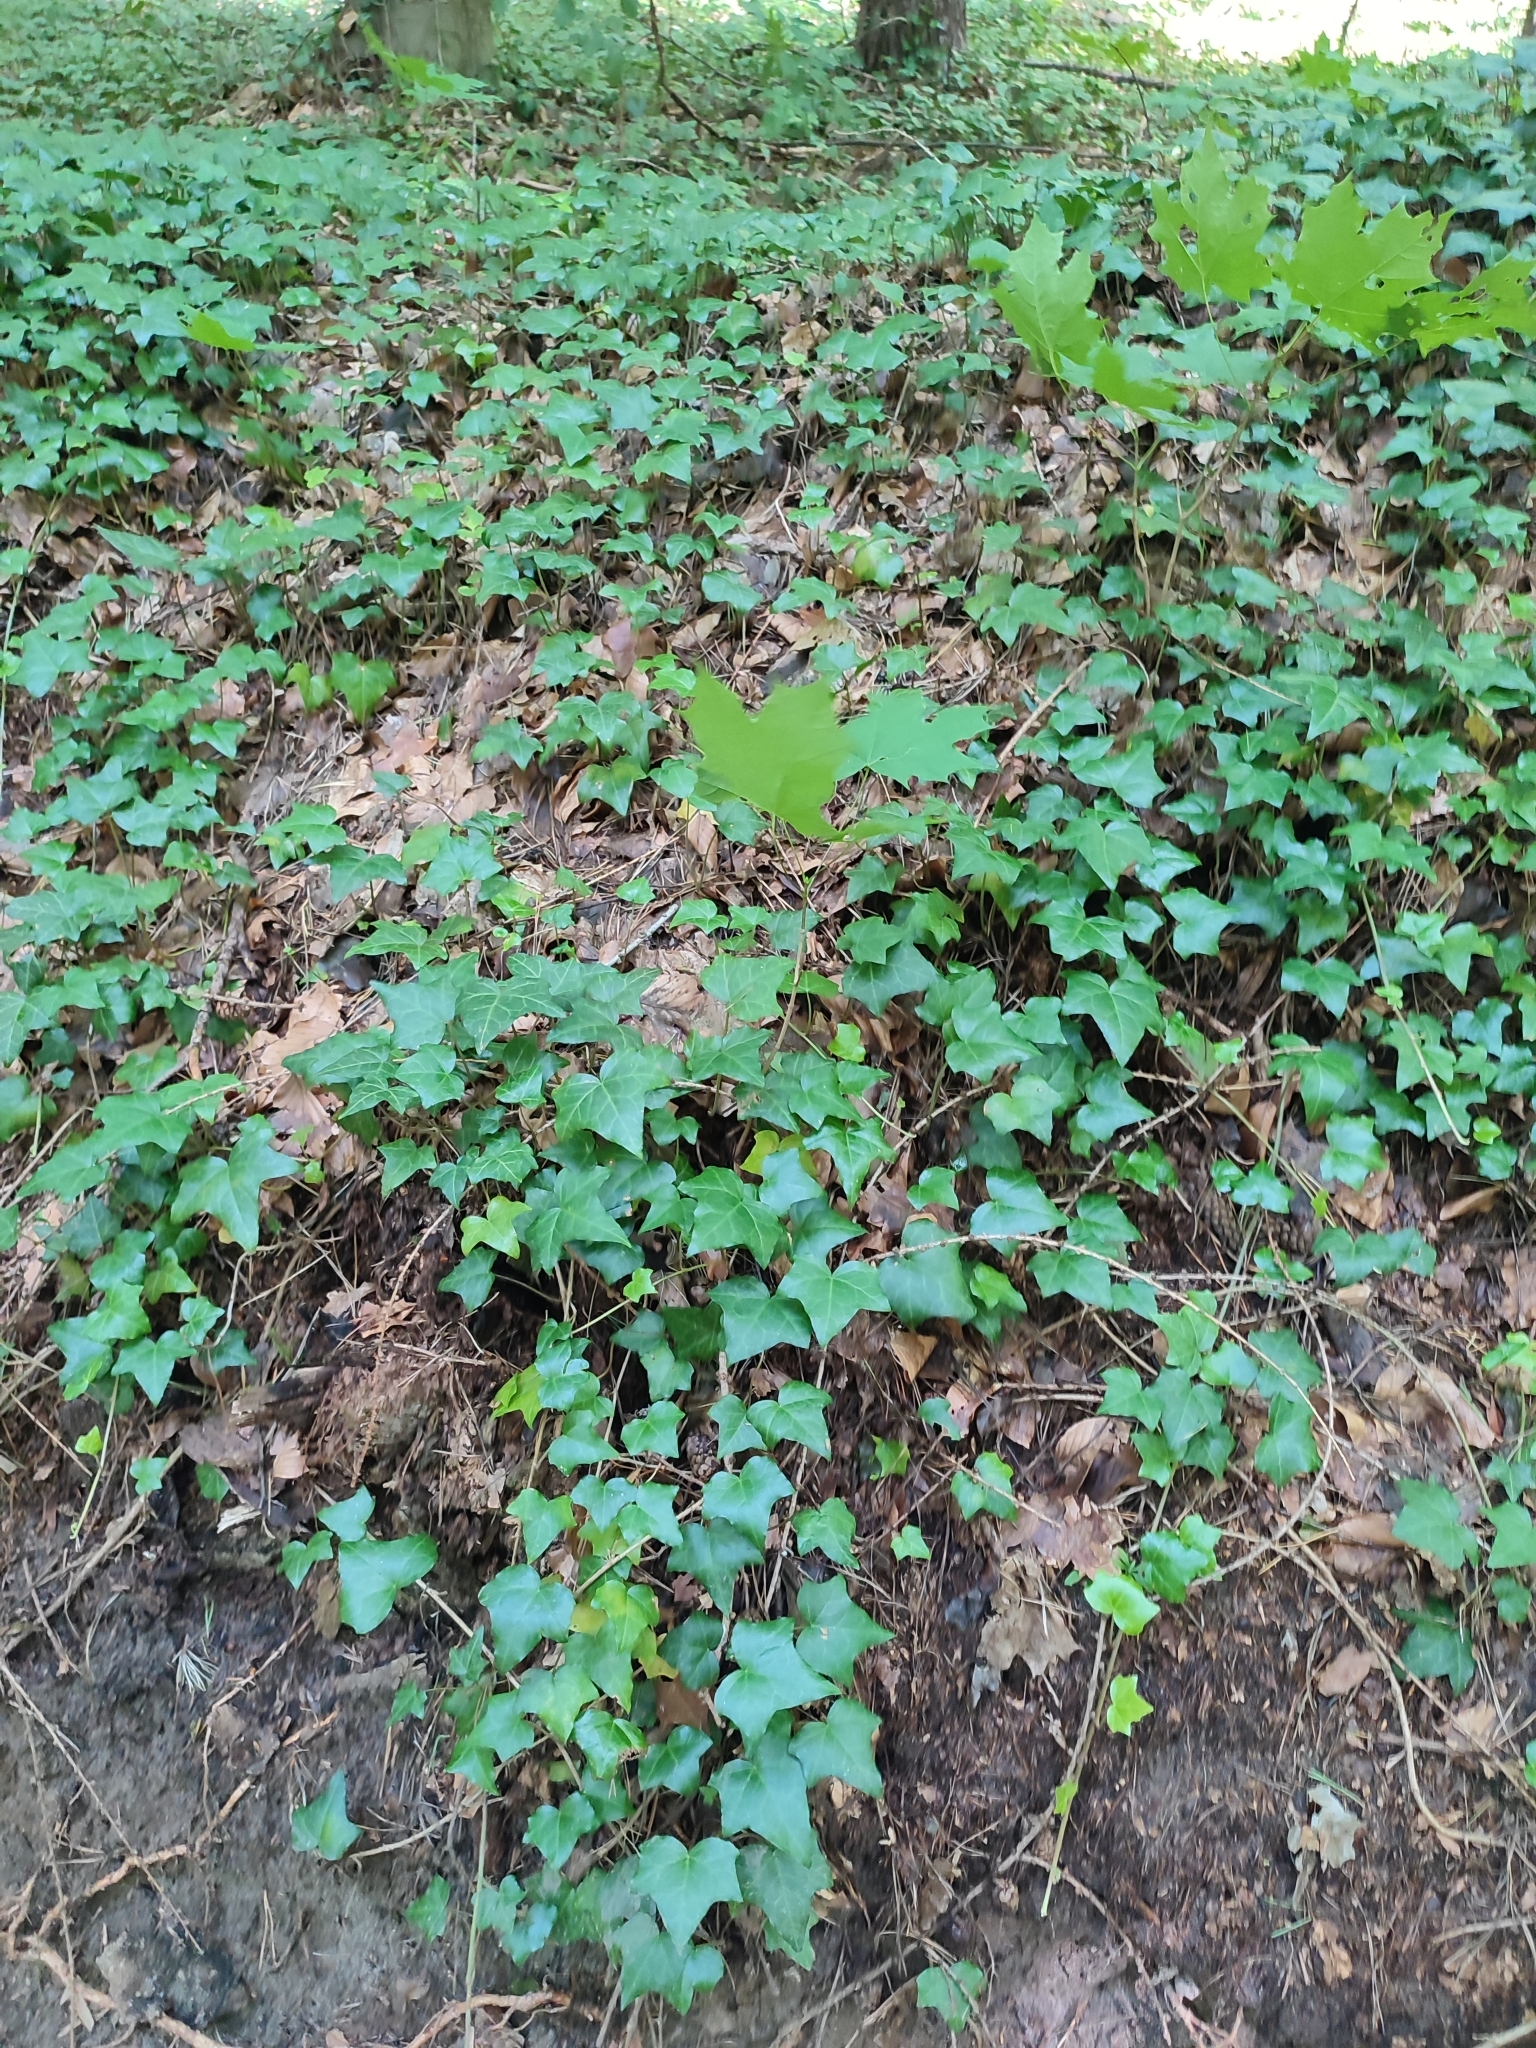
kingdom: Plantae
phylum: Tracheophyta
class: Magnoliopsida
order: Apiales
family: Araliaceae
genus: Hedera
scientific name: Hedera helix
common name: Ivy
